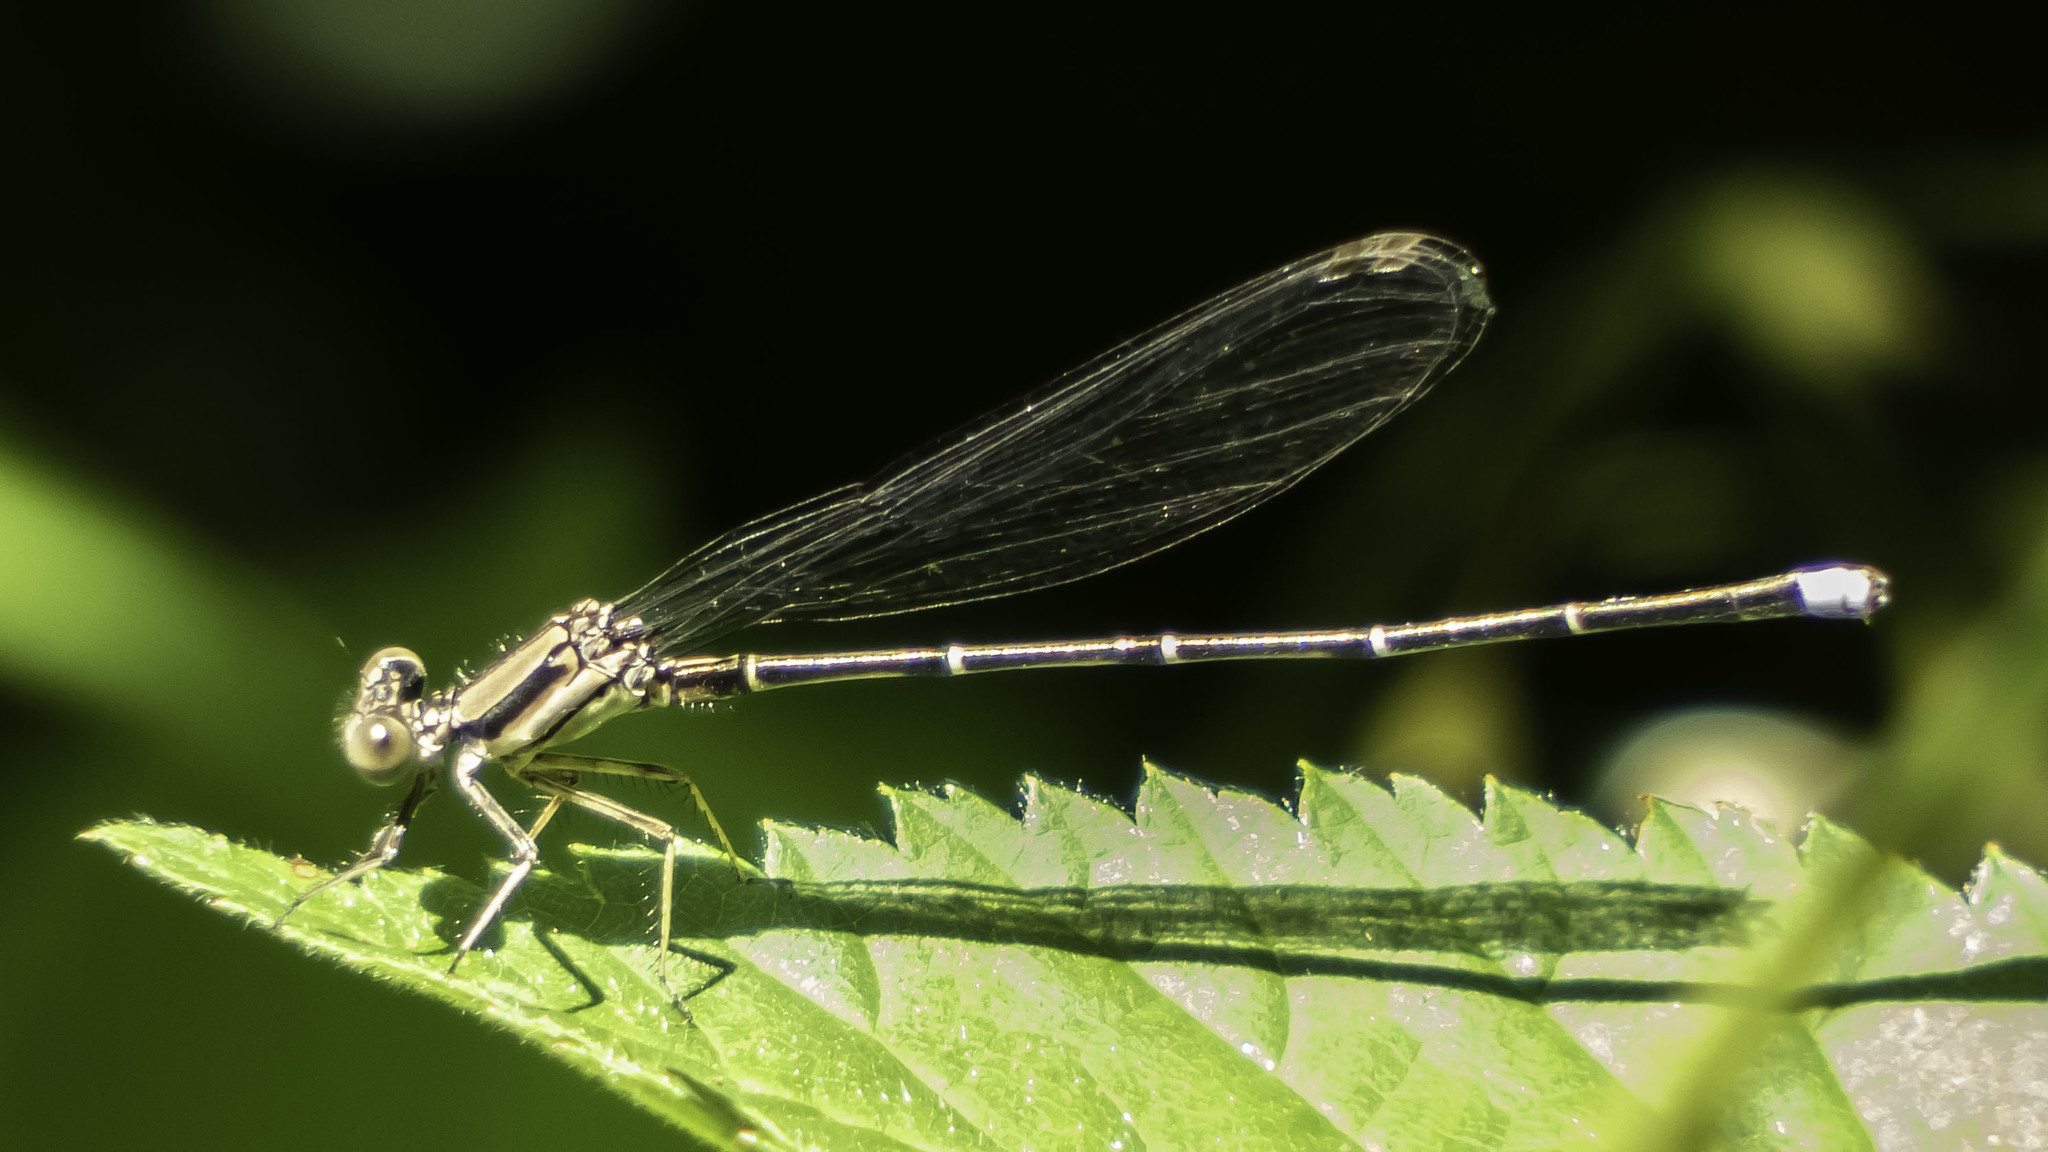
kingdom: Animalia
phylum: Arthropoda
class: Insecta
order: Odonata
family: Coenagrionidae
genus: Argia
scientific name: Argia tibialis
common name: Blue-tipped dancer
